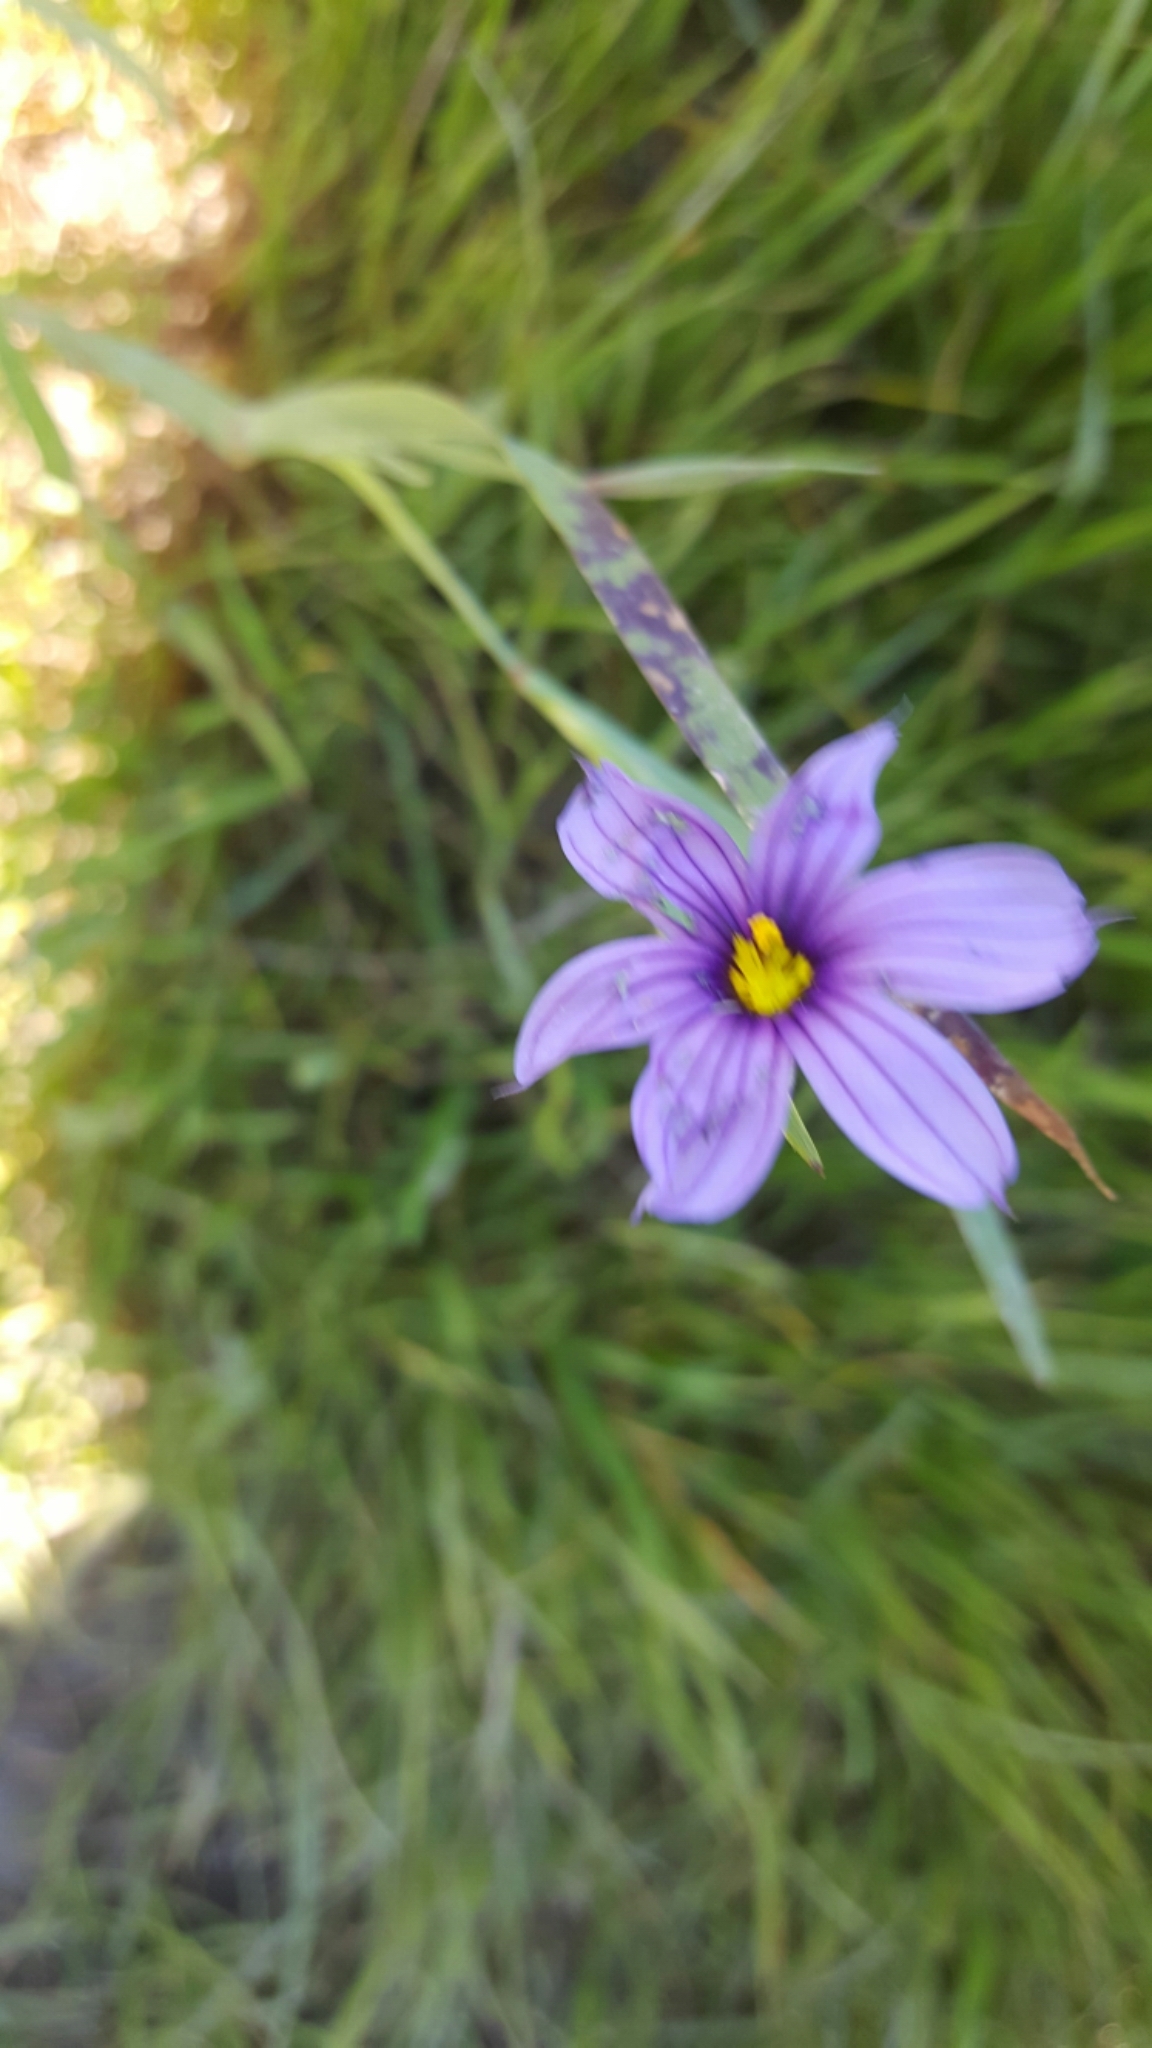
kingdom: Plantae
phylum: Tracheophyta
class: Liliopsida
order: Asparagales
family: Iridaceae
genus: Sisyrinchium
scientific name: Sisyrinchium bellum
